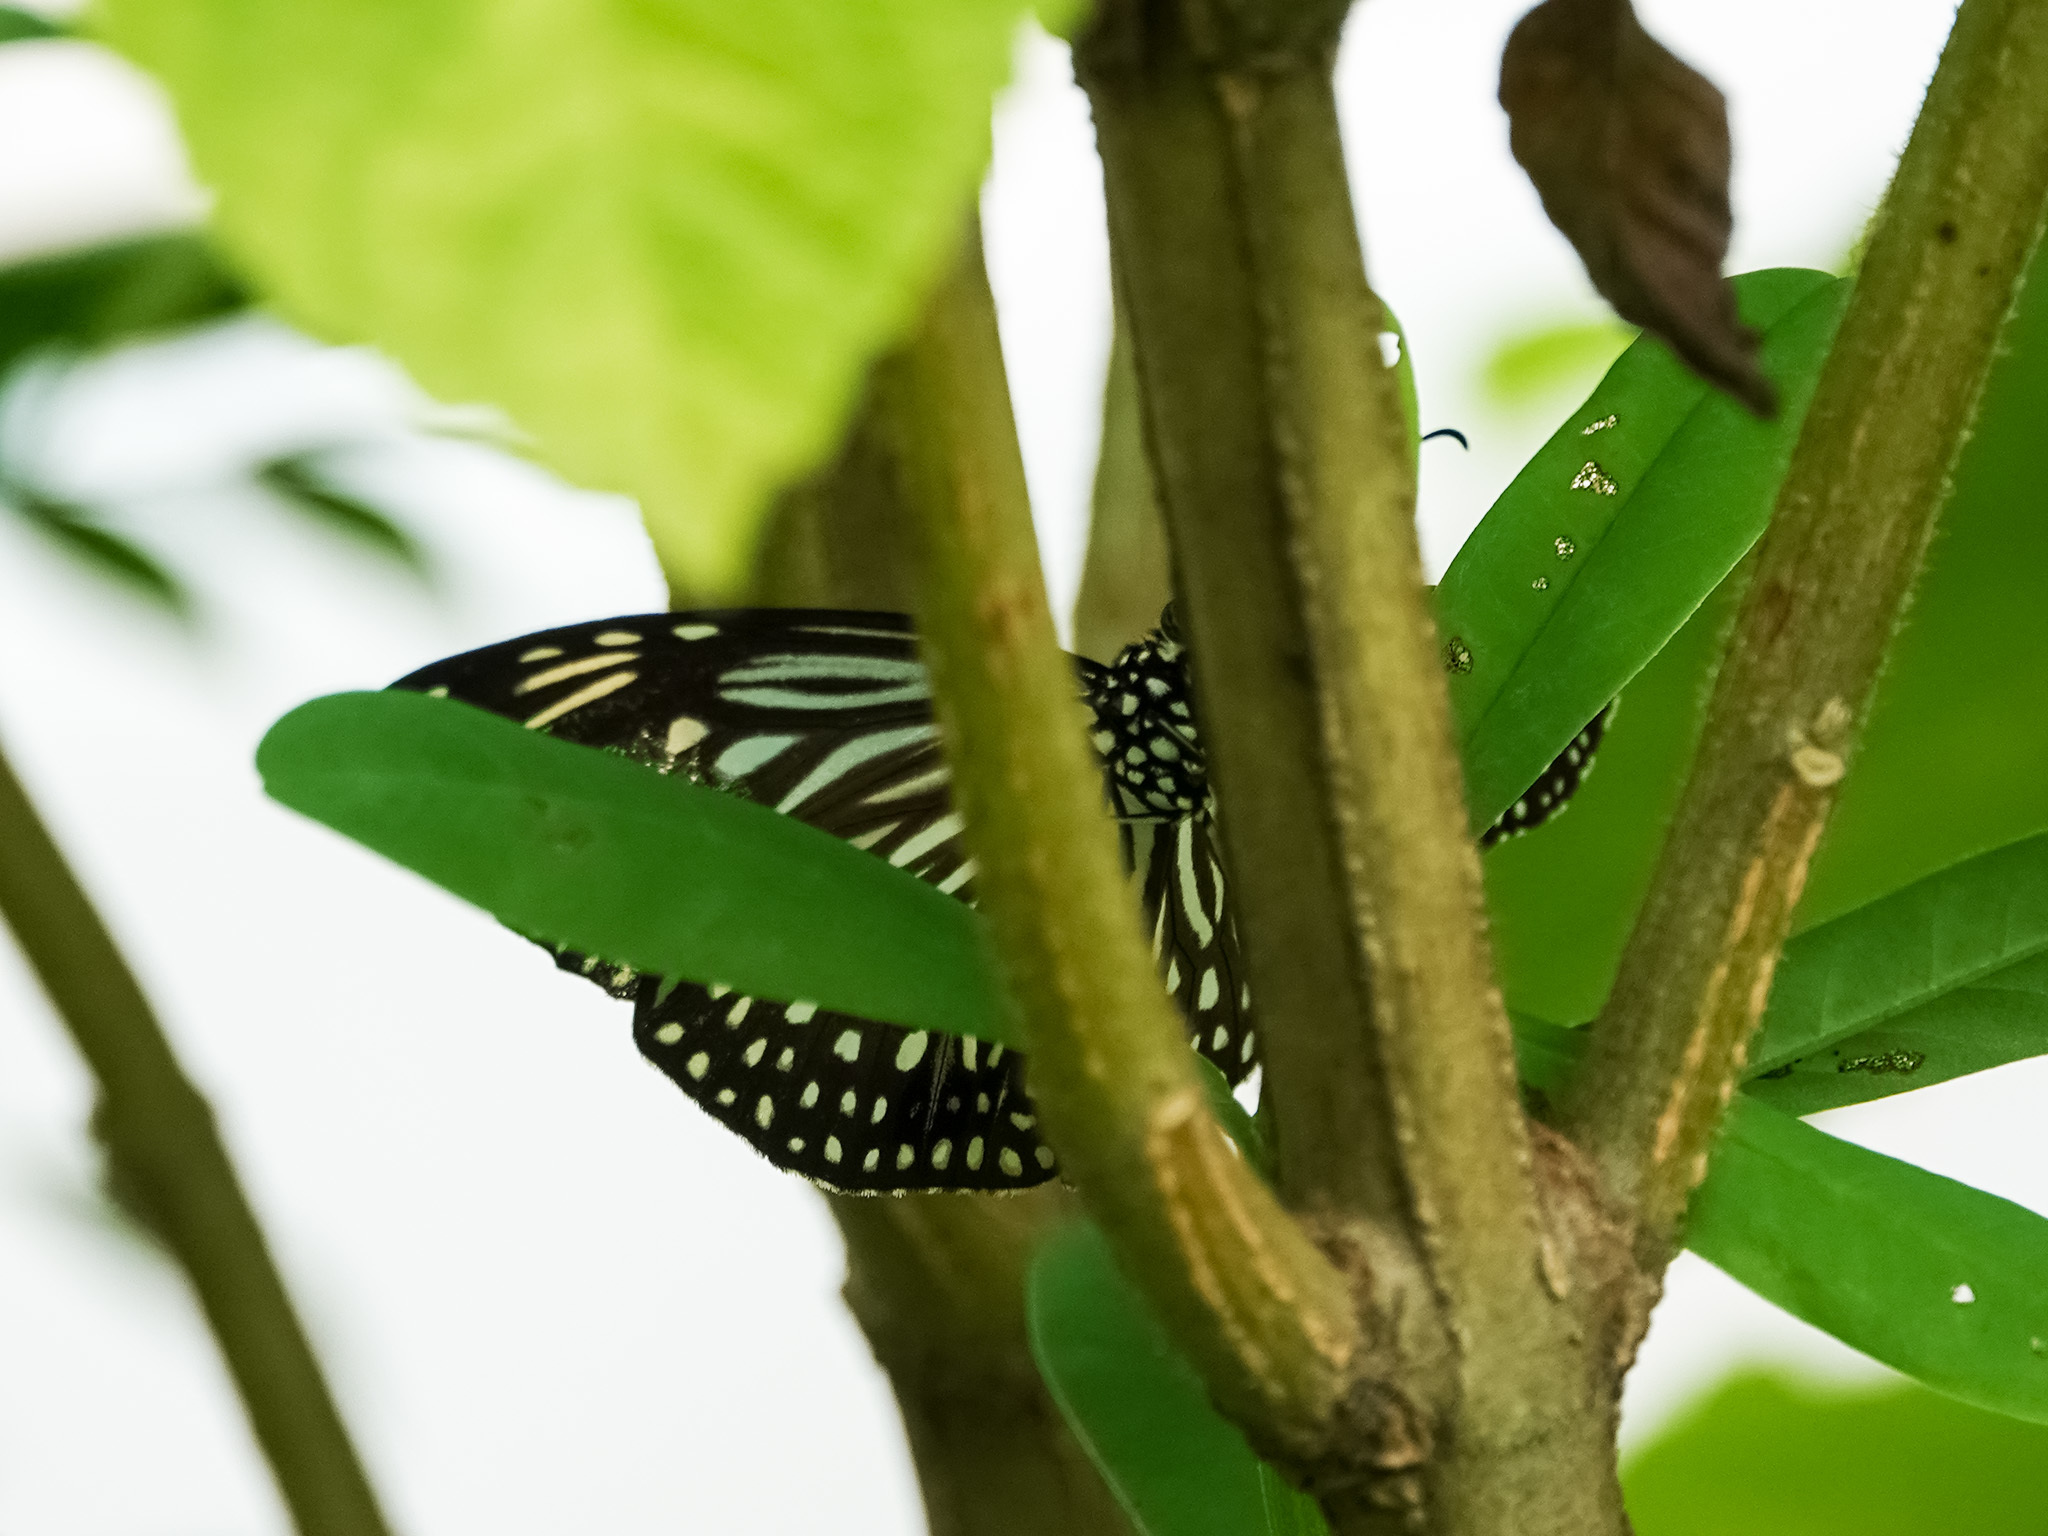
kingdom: Animalia
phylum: Arthropoda
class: Insecta
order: Lepidoptera
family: Nymphalidae
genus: Parantica
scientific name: Parantica agleoides
